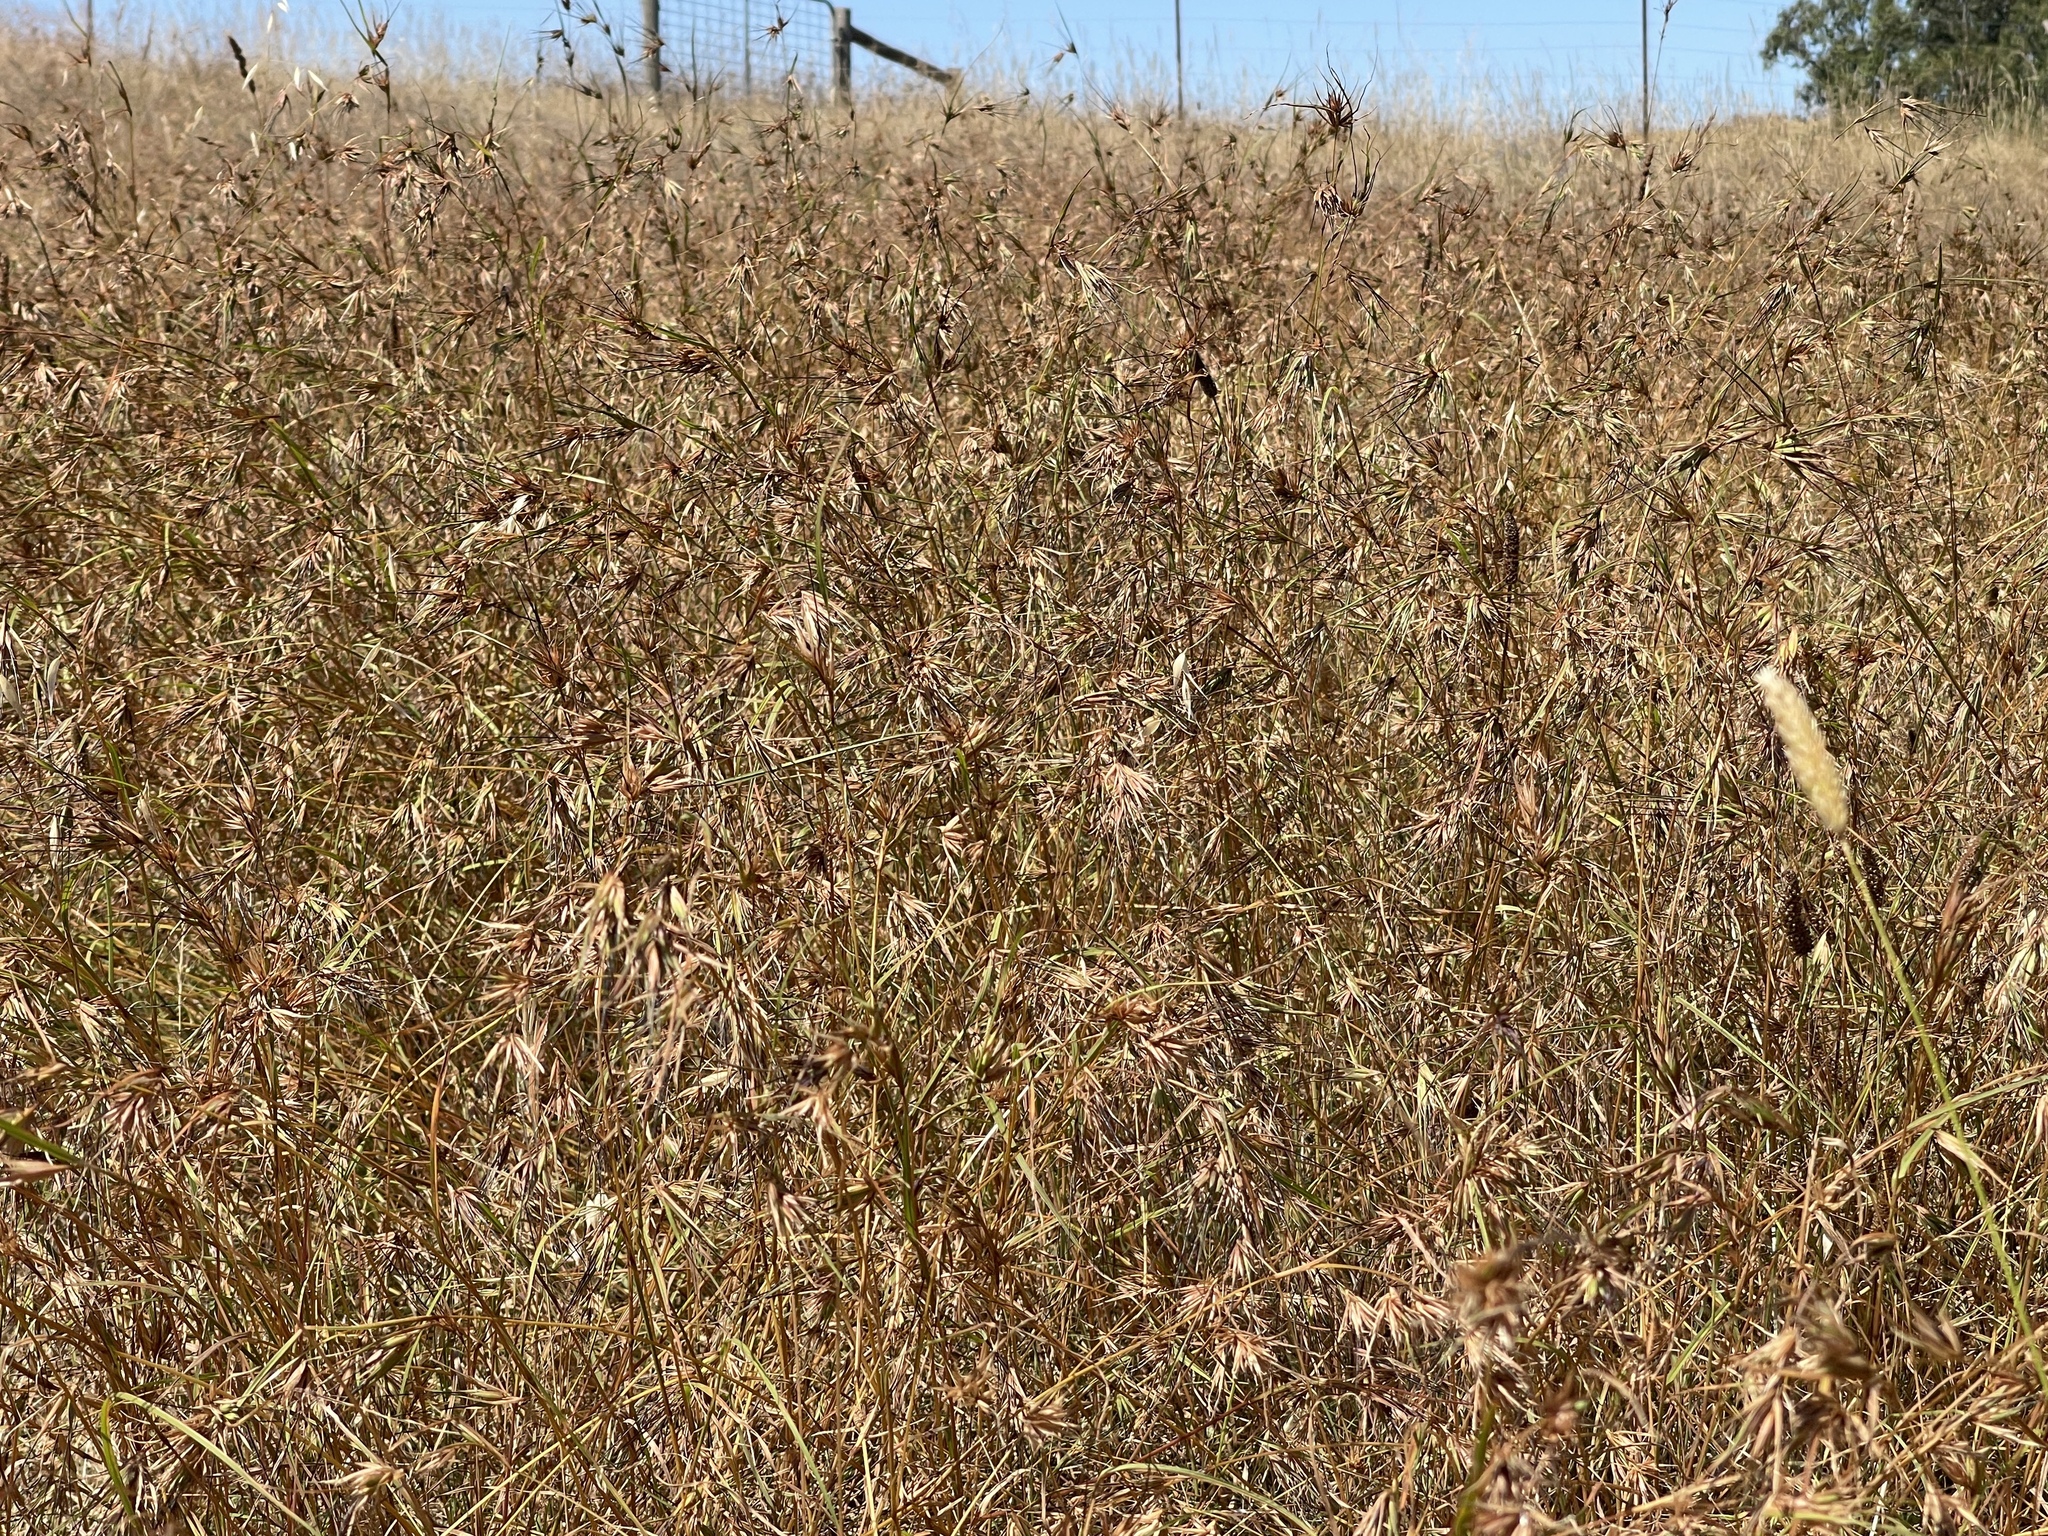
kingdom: Plantae
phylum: Tracheophyta
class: Liliopsida
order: Poales
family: Poaceae
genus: Themeda
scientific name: Themeda triandra
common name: Kangaroo grass
